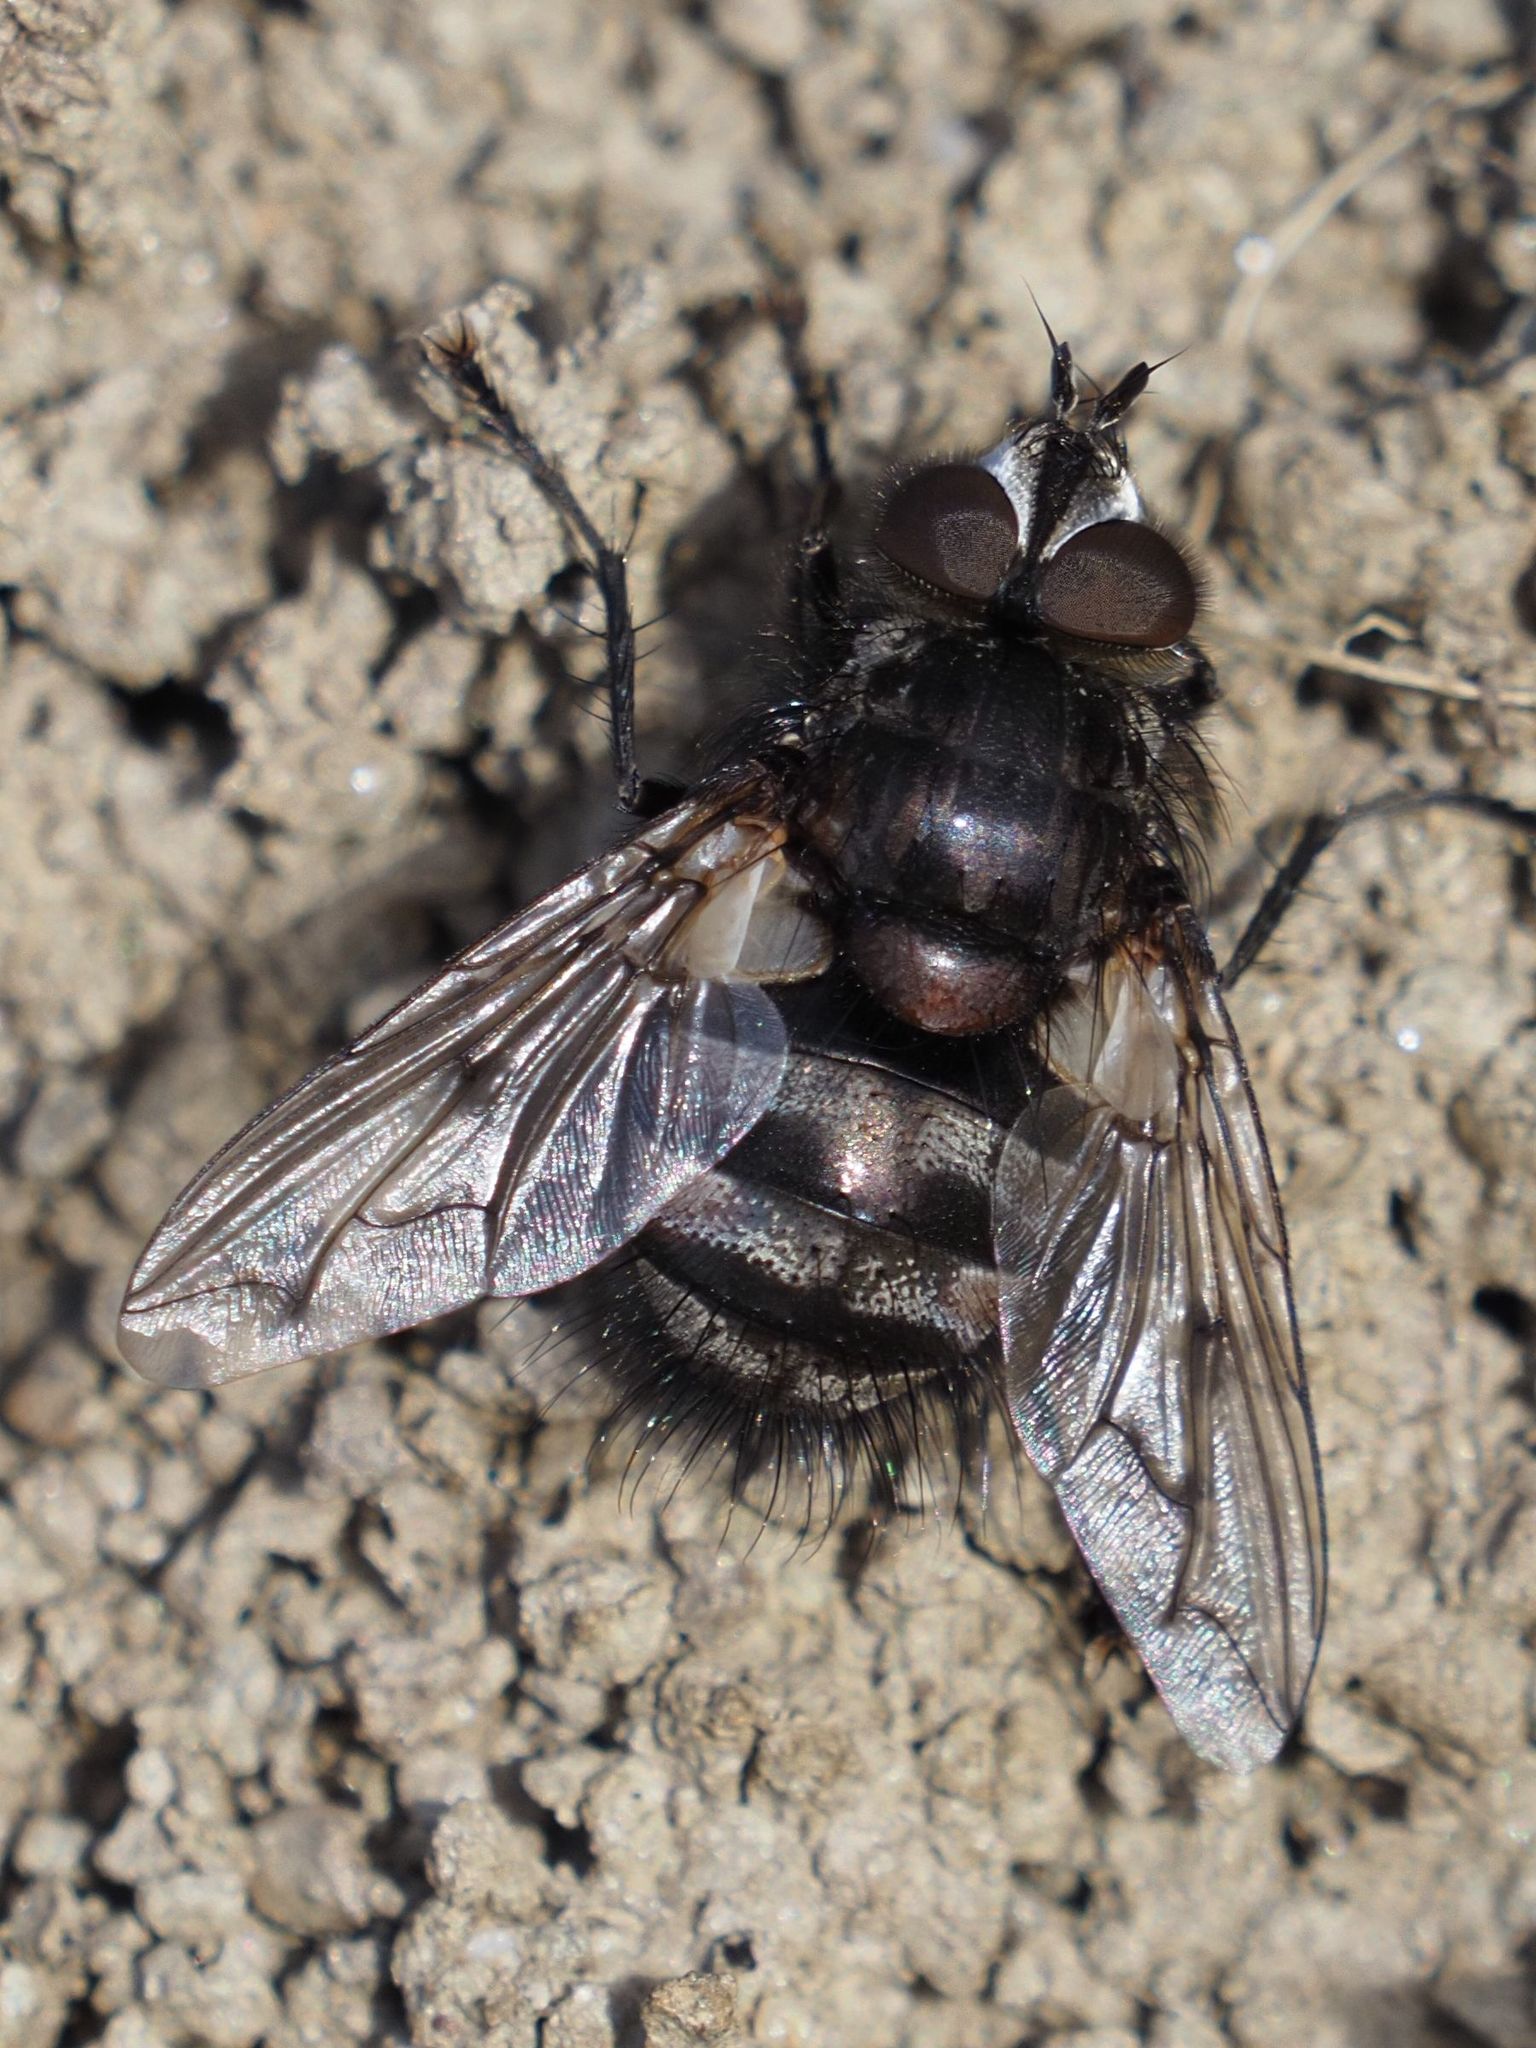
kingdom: Animalia
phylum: Arthropoda
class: Insecta
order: Diptera
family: Tachinidae
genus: Panzeria
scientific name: Panzeria puparum
